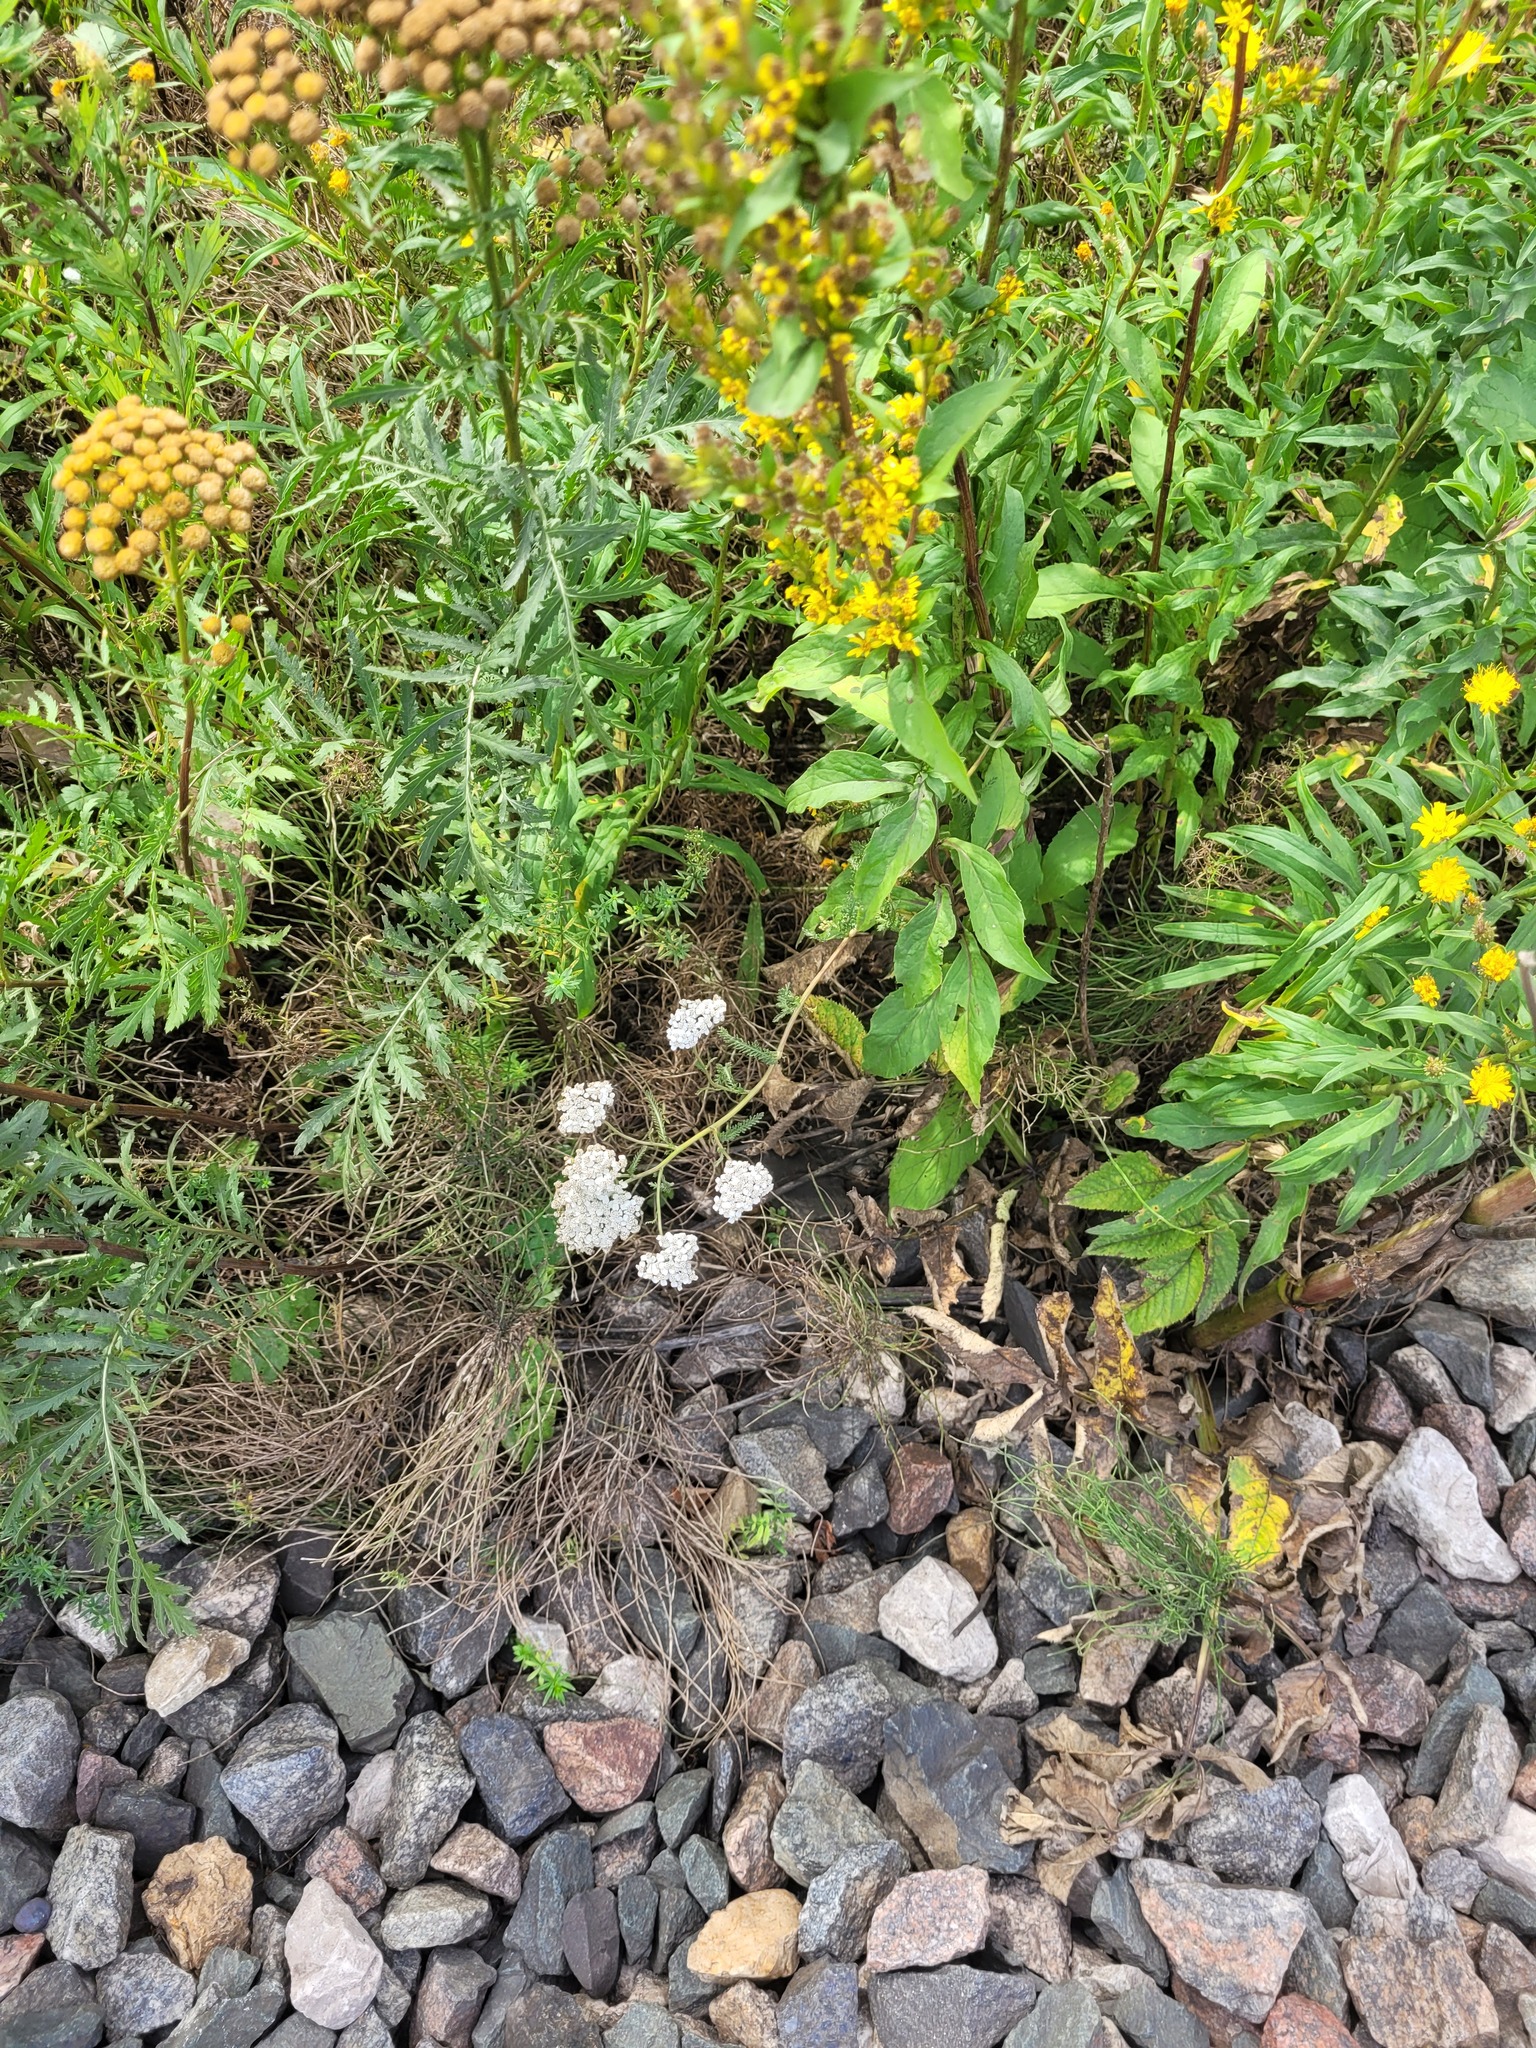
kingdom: Plantae
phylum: Tracheophyta
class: Magnoliopsida
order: Asterales
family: Asteraceae
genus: Achillea
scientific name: Achillea millefolium
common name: Yarrow
